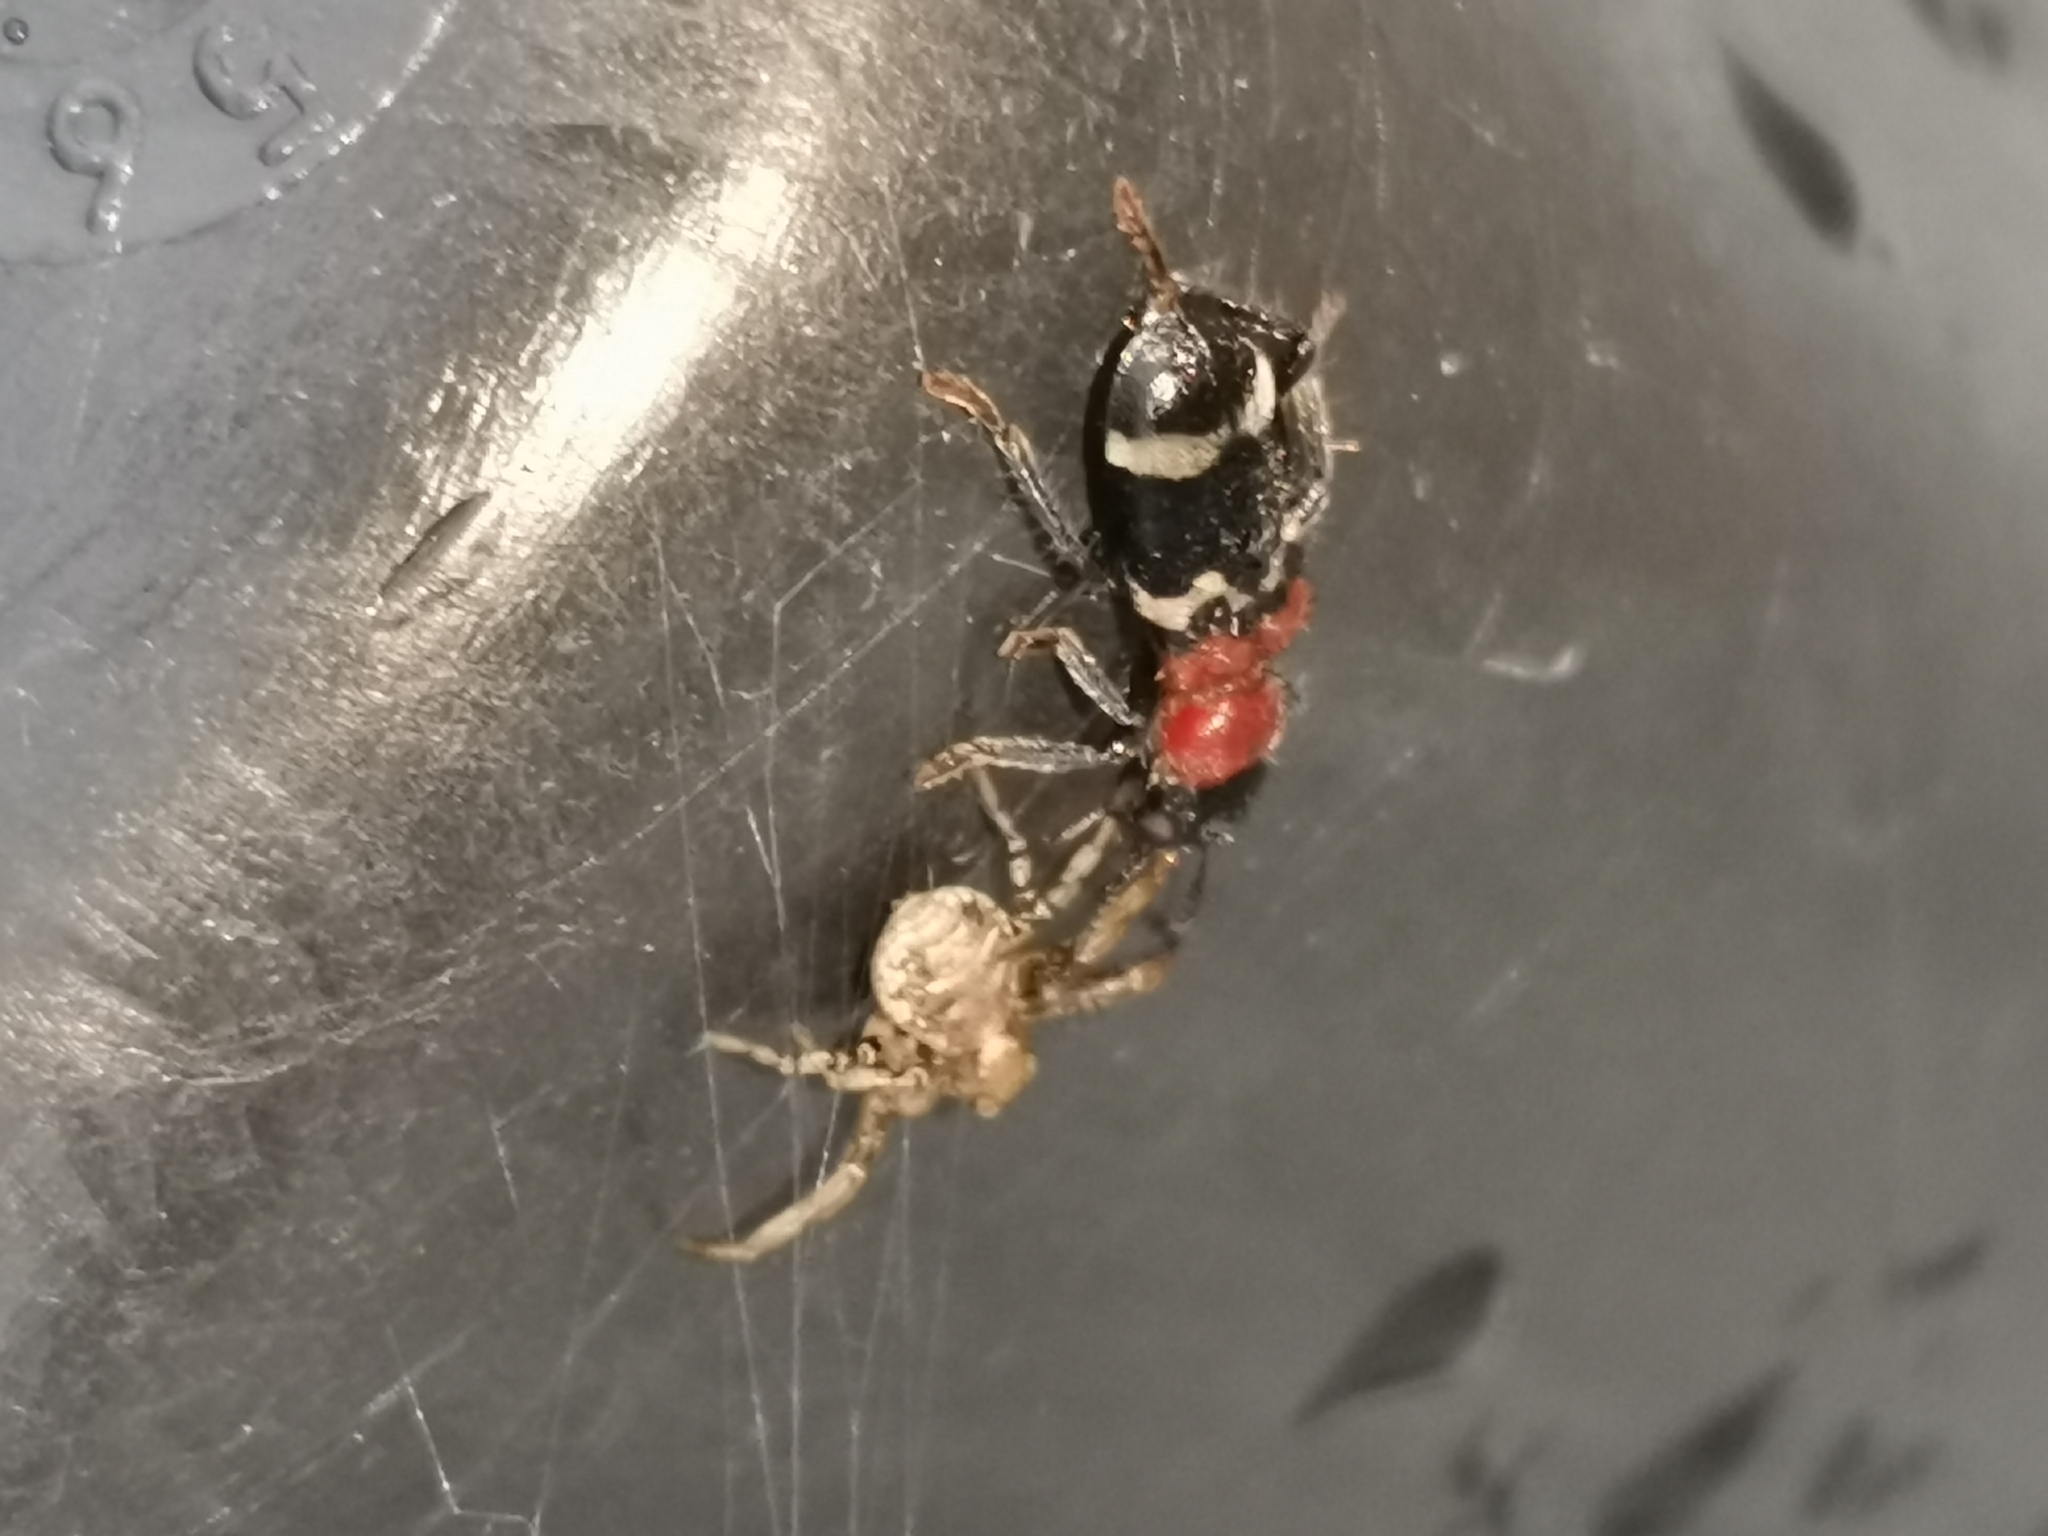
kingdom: Animalia
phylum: Arthropoda
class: Insecta
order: Coleoptera
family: Cleridae
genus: Thanasimus
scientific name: Thanasimus formicarius
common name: Ant beetle
